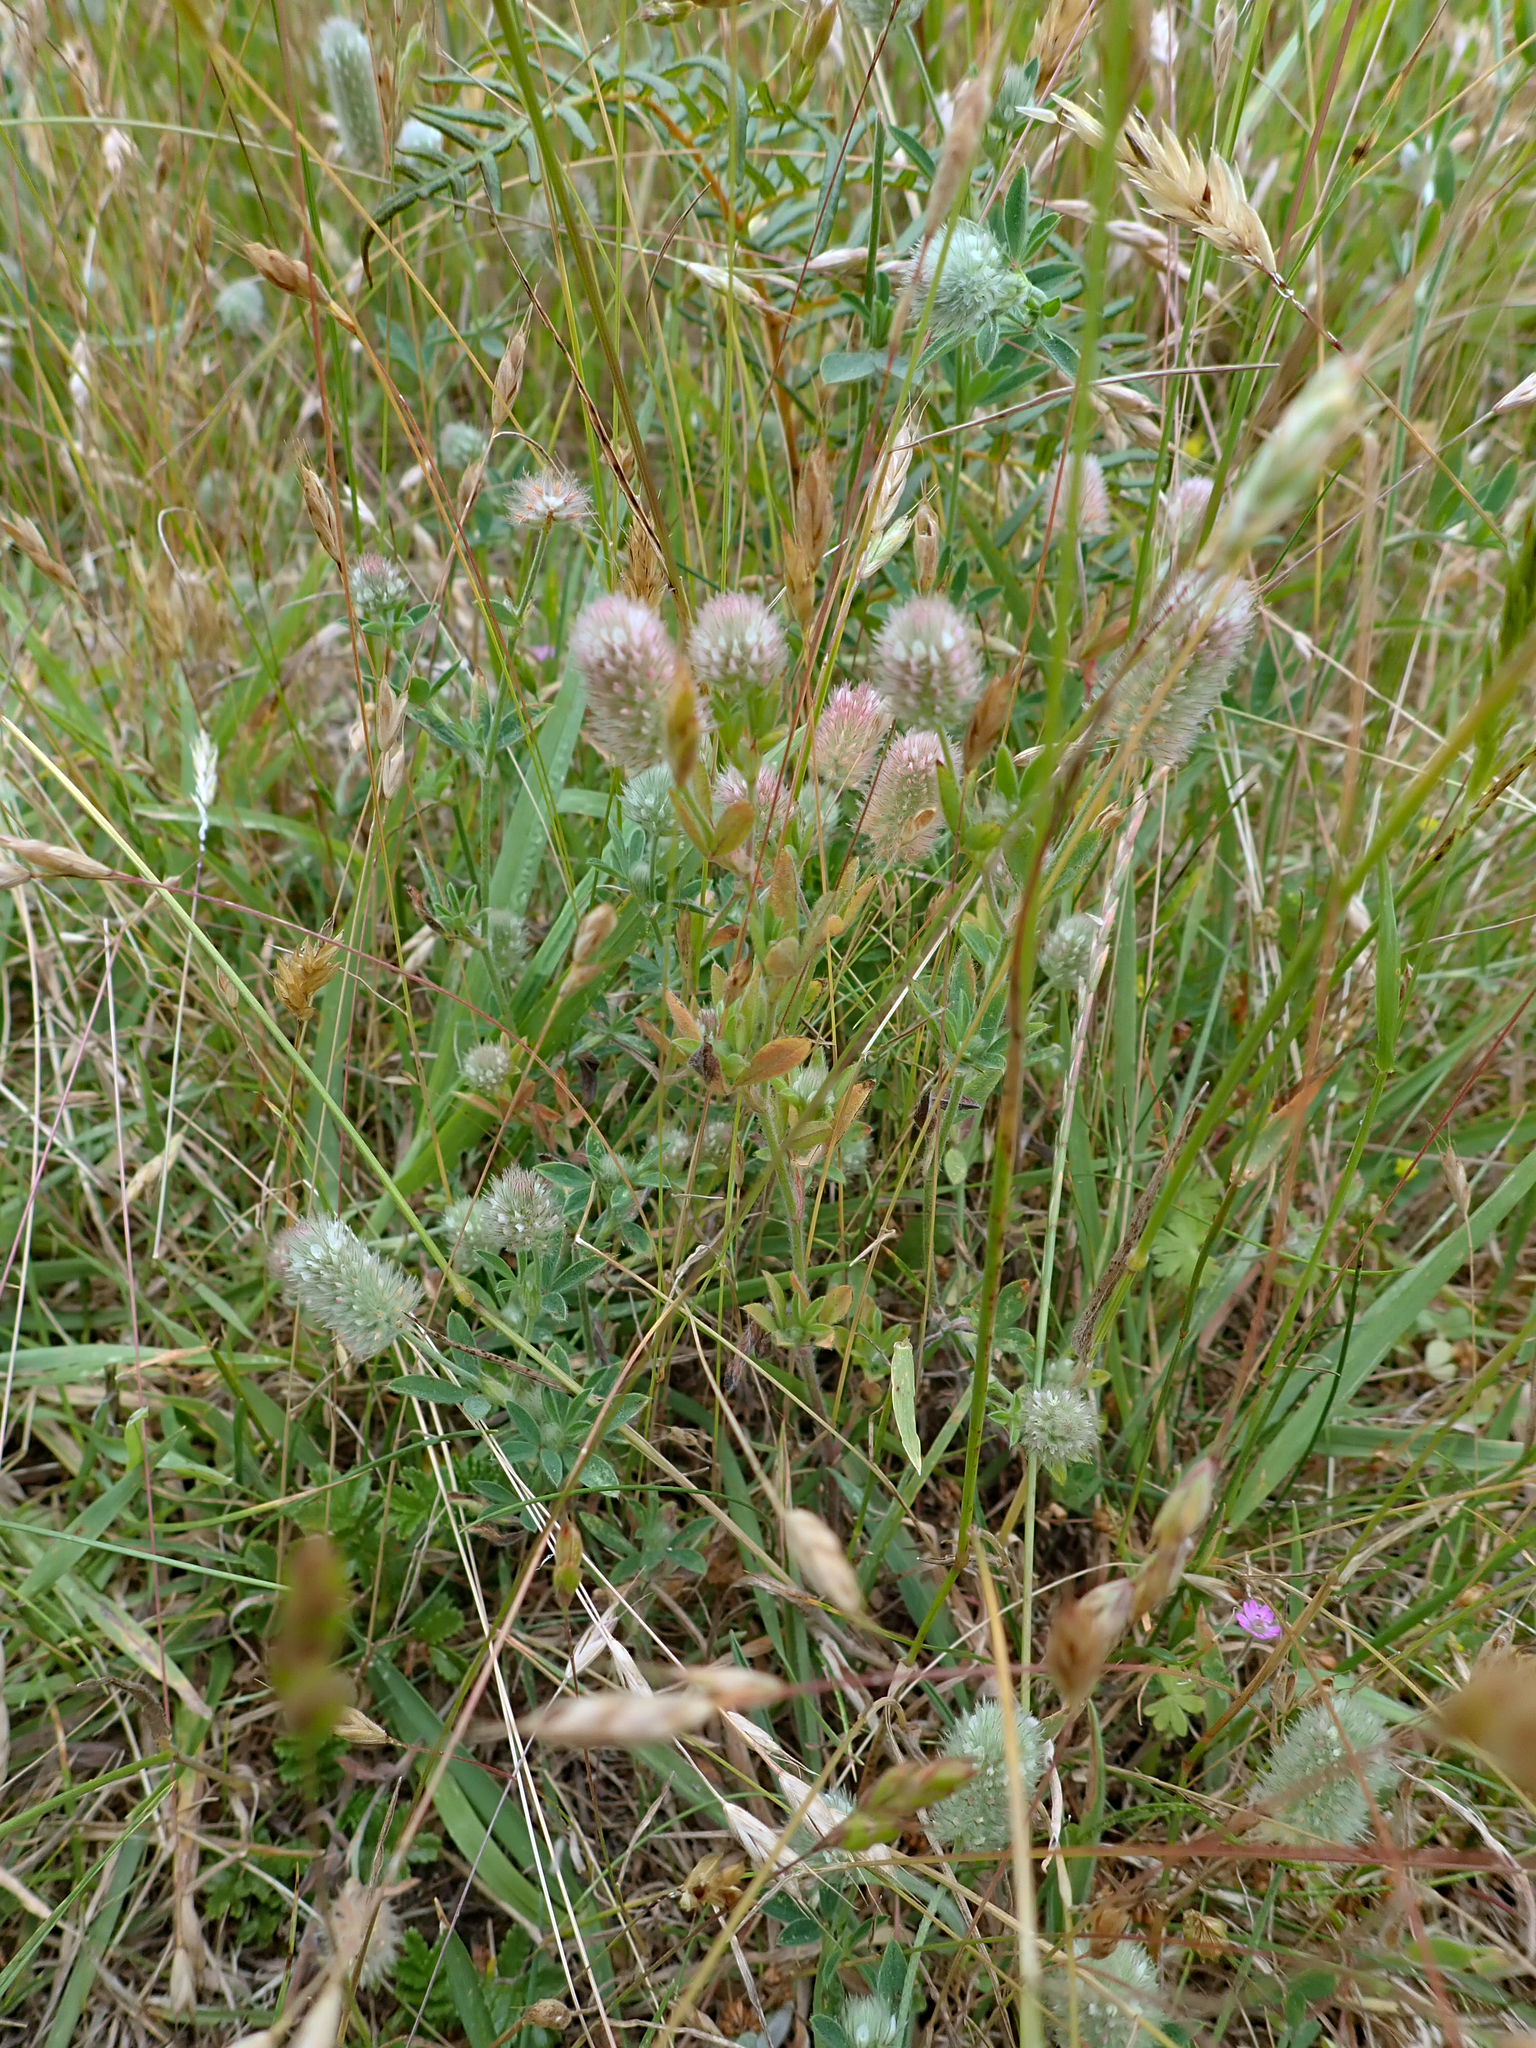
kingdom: Plantae
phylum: Tracheophyta
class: Magnoliopsida
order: Fabales
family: Fabaceae
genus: Trifolium
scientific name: Trifolium arvense
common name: Hare's-foot clover
